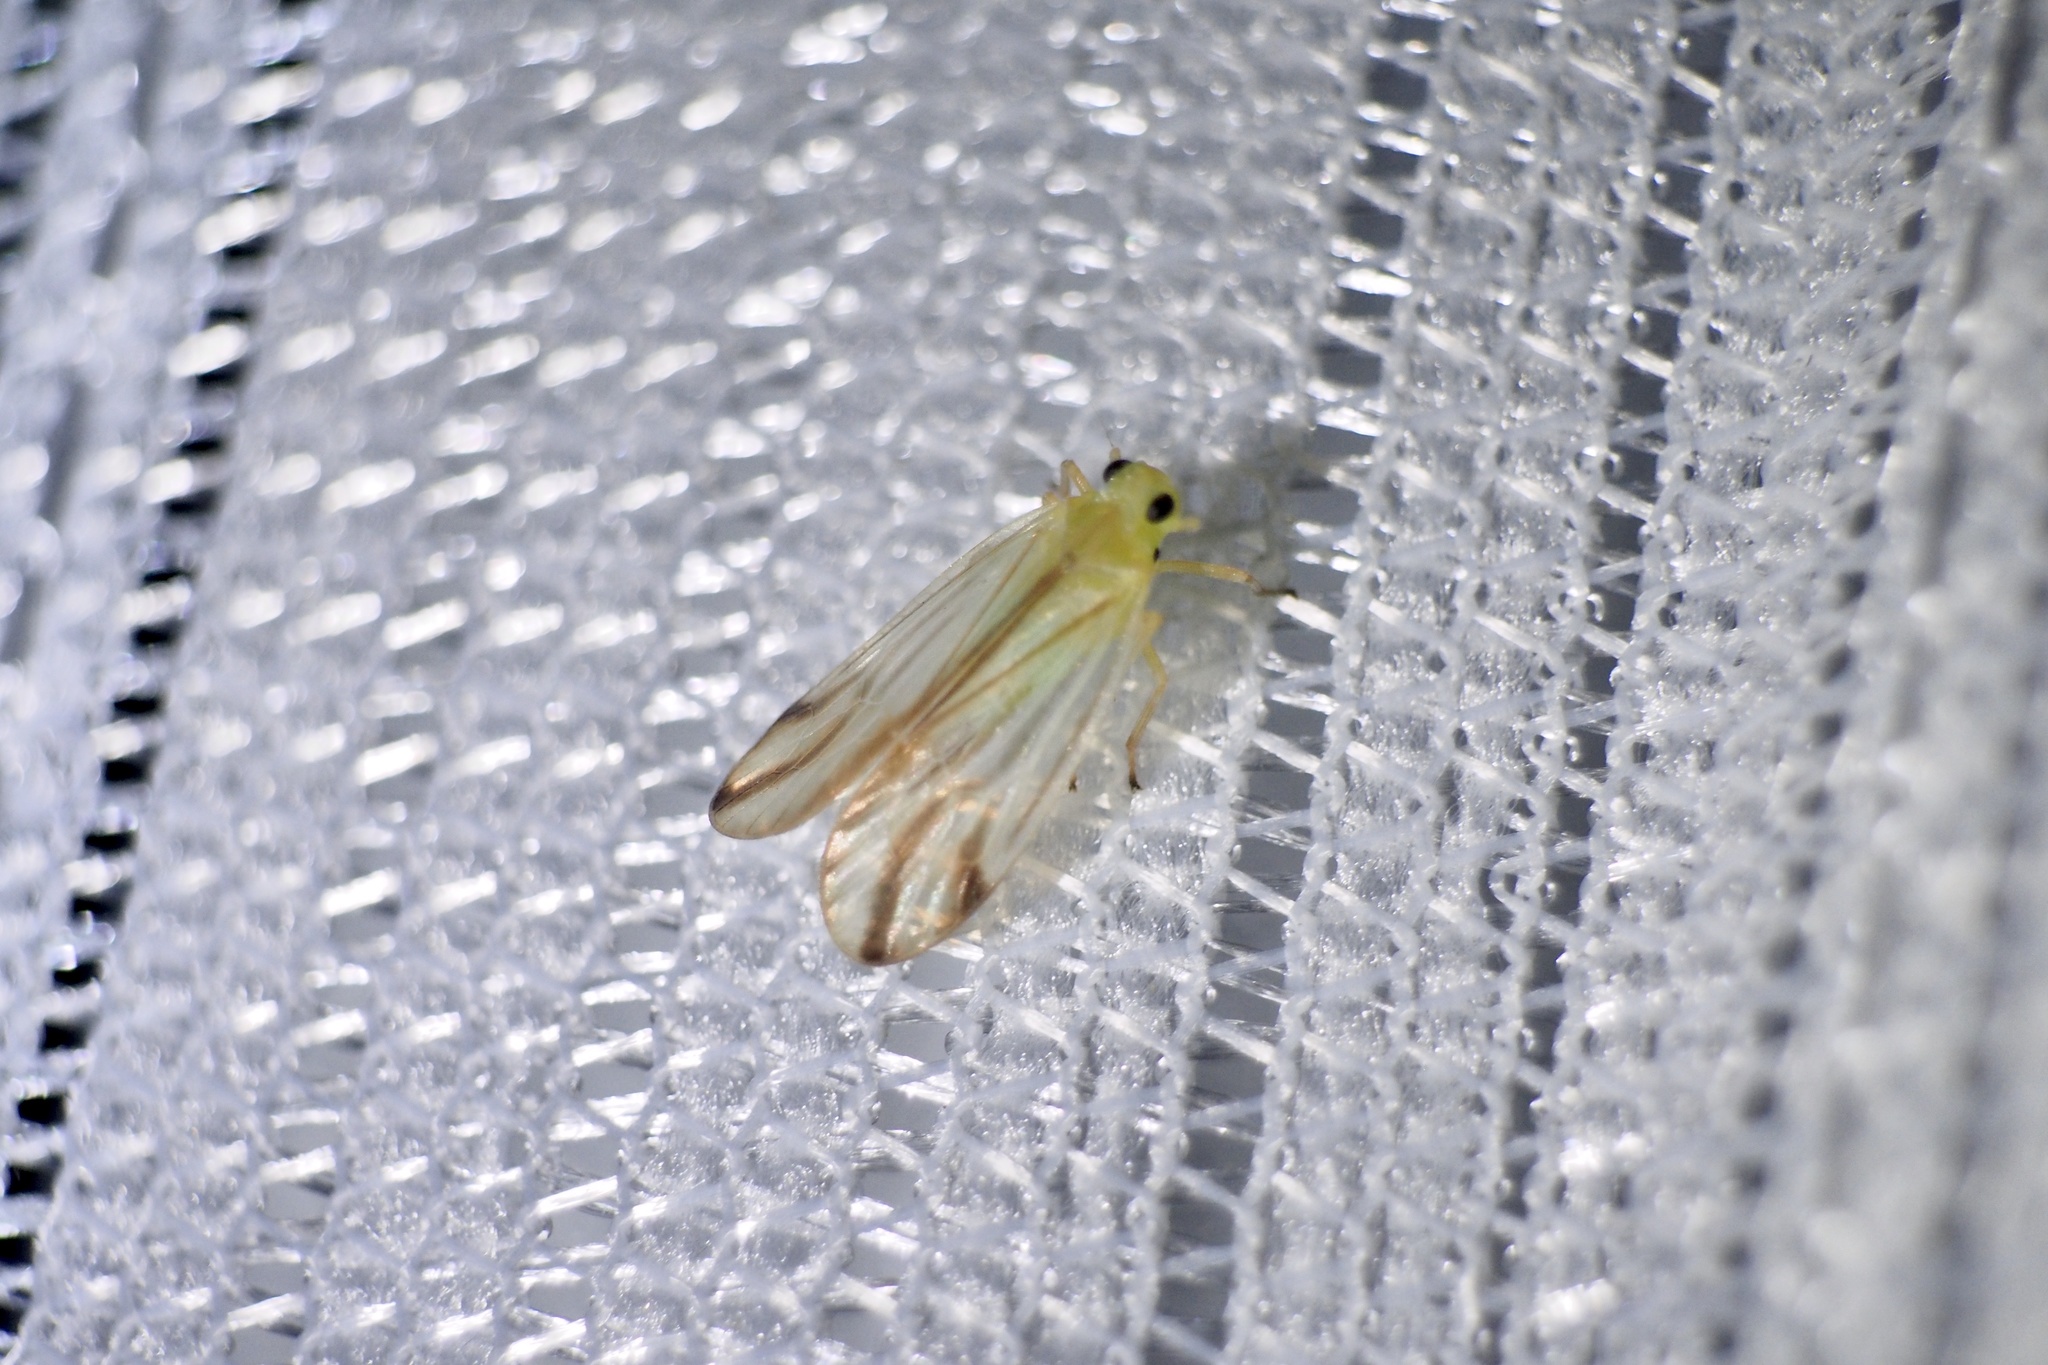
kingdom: Animalia
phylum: Arthropoda
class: Insecta
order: Hemiptera
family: Tropiduchidae
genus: Catullia
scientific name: Catullia vittata
